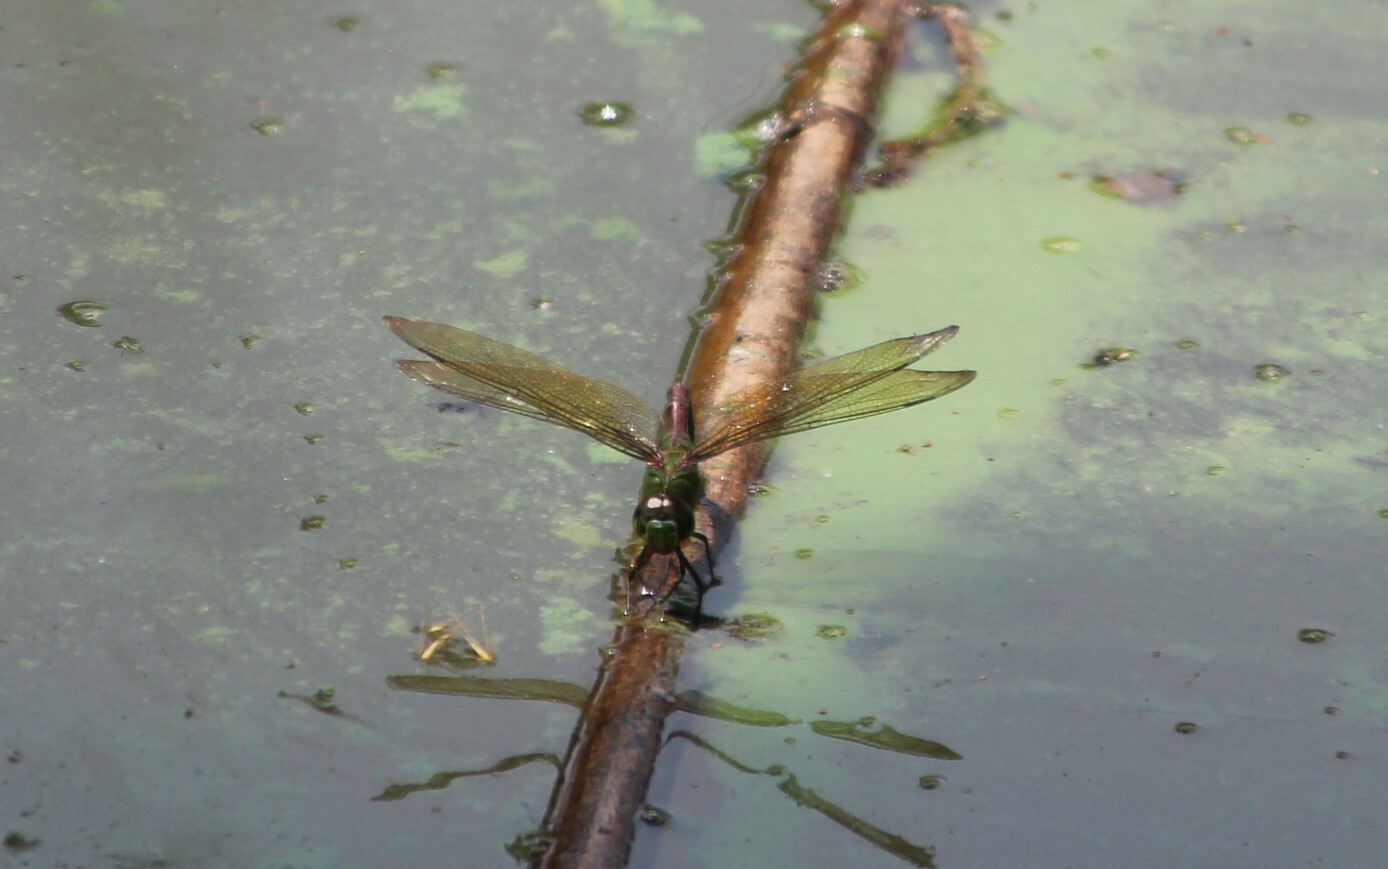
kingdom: Animalia
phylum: Arthropoda
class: Insecta
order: Odonata
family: Aeshnidae
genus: Anax
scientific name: Anax imperator
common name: Emperor dragonfly
